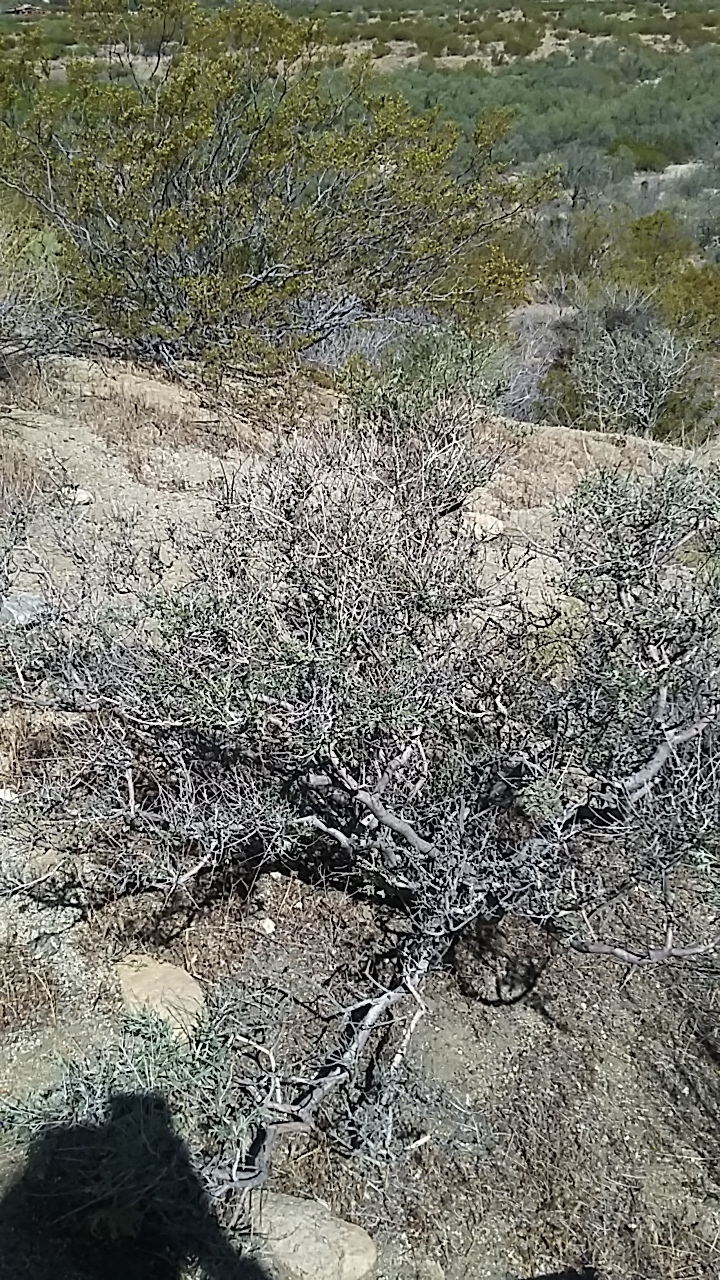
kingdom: Plantae
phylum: Tracheophyta
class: Magnoliopsida
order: Fabales
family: Fabaceae
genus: Psorothamnus
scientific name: Psorothamnus arborescens
